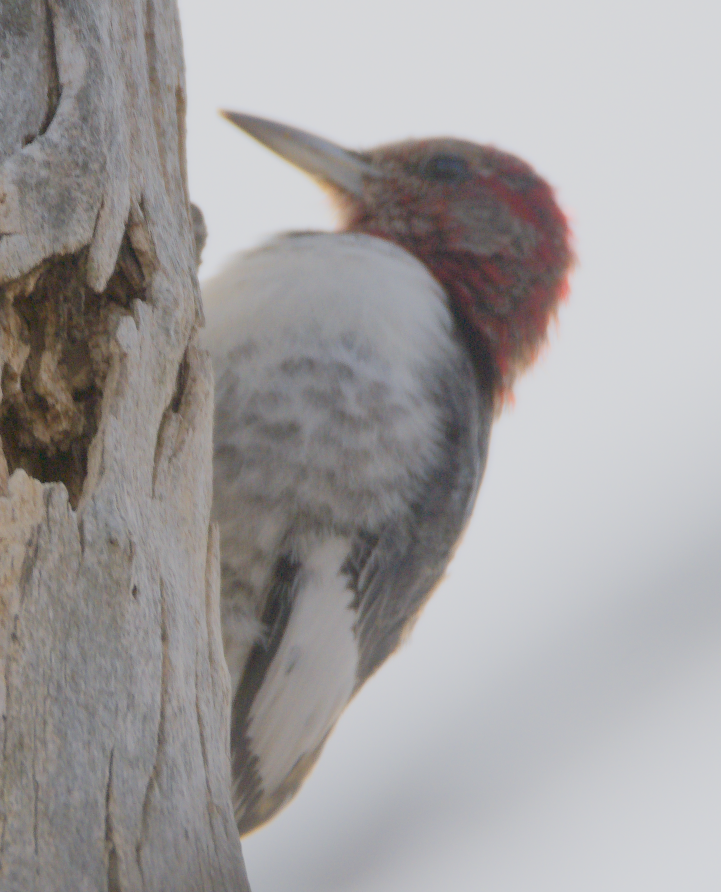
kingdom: Animalia
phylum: Chordata
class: Aves
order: Piciformes
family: Picidae
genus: Melanerpes
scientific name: Melanerpes erythrocephalus
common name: Red-headed woodpecker
